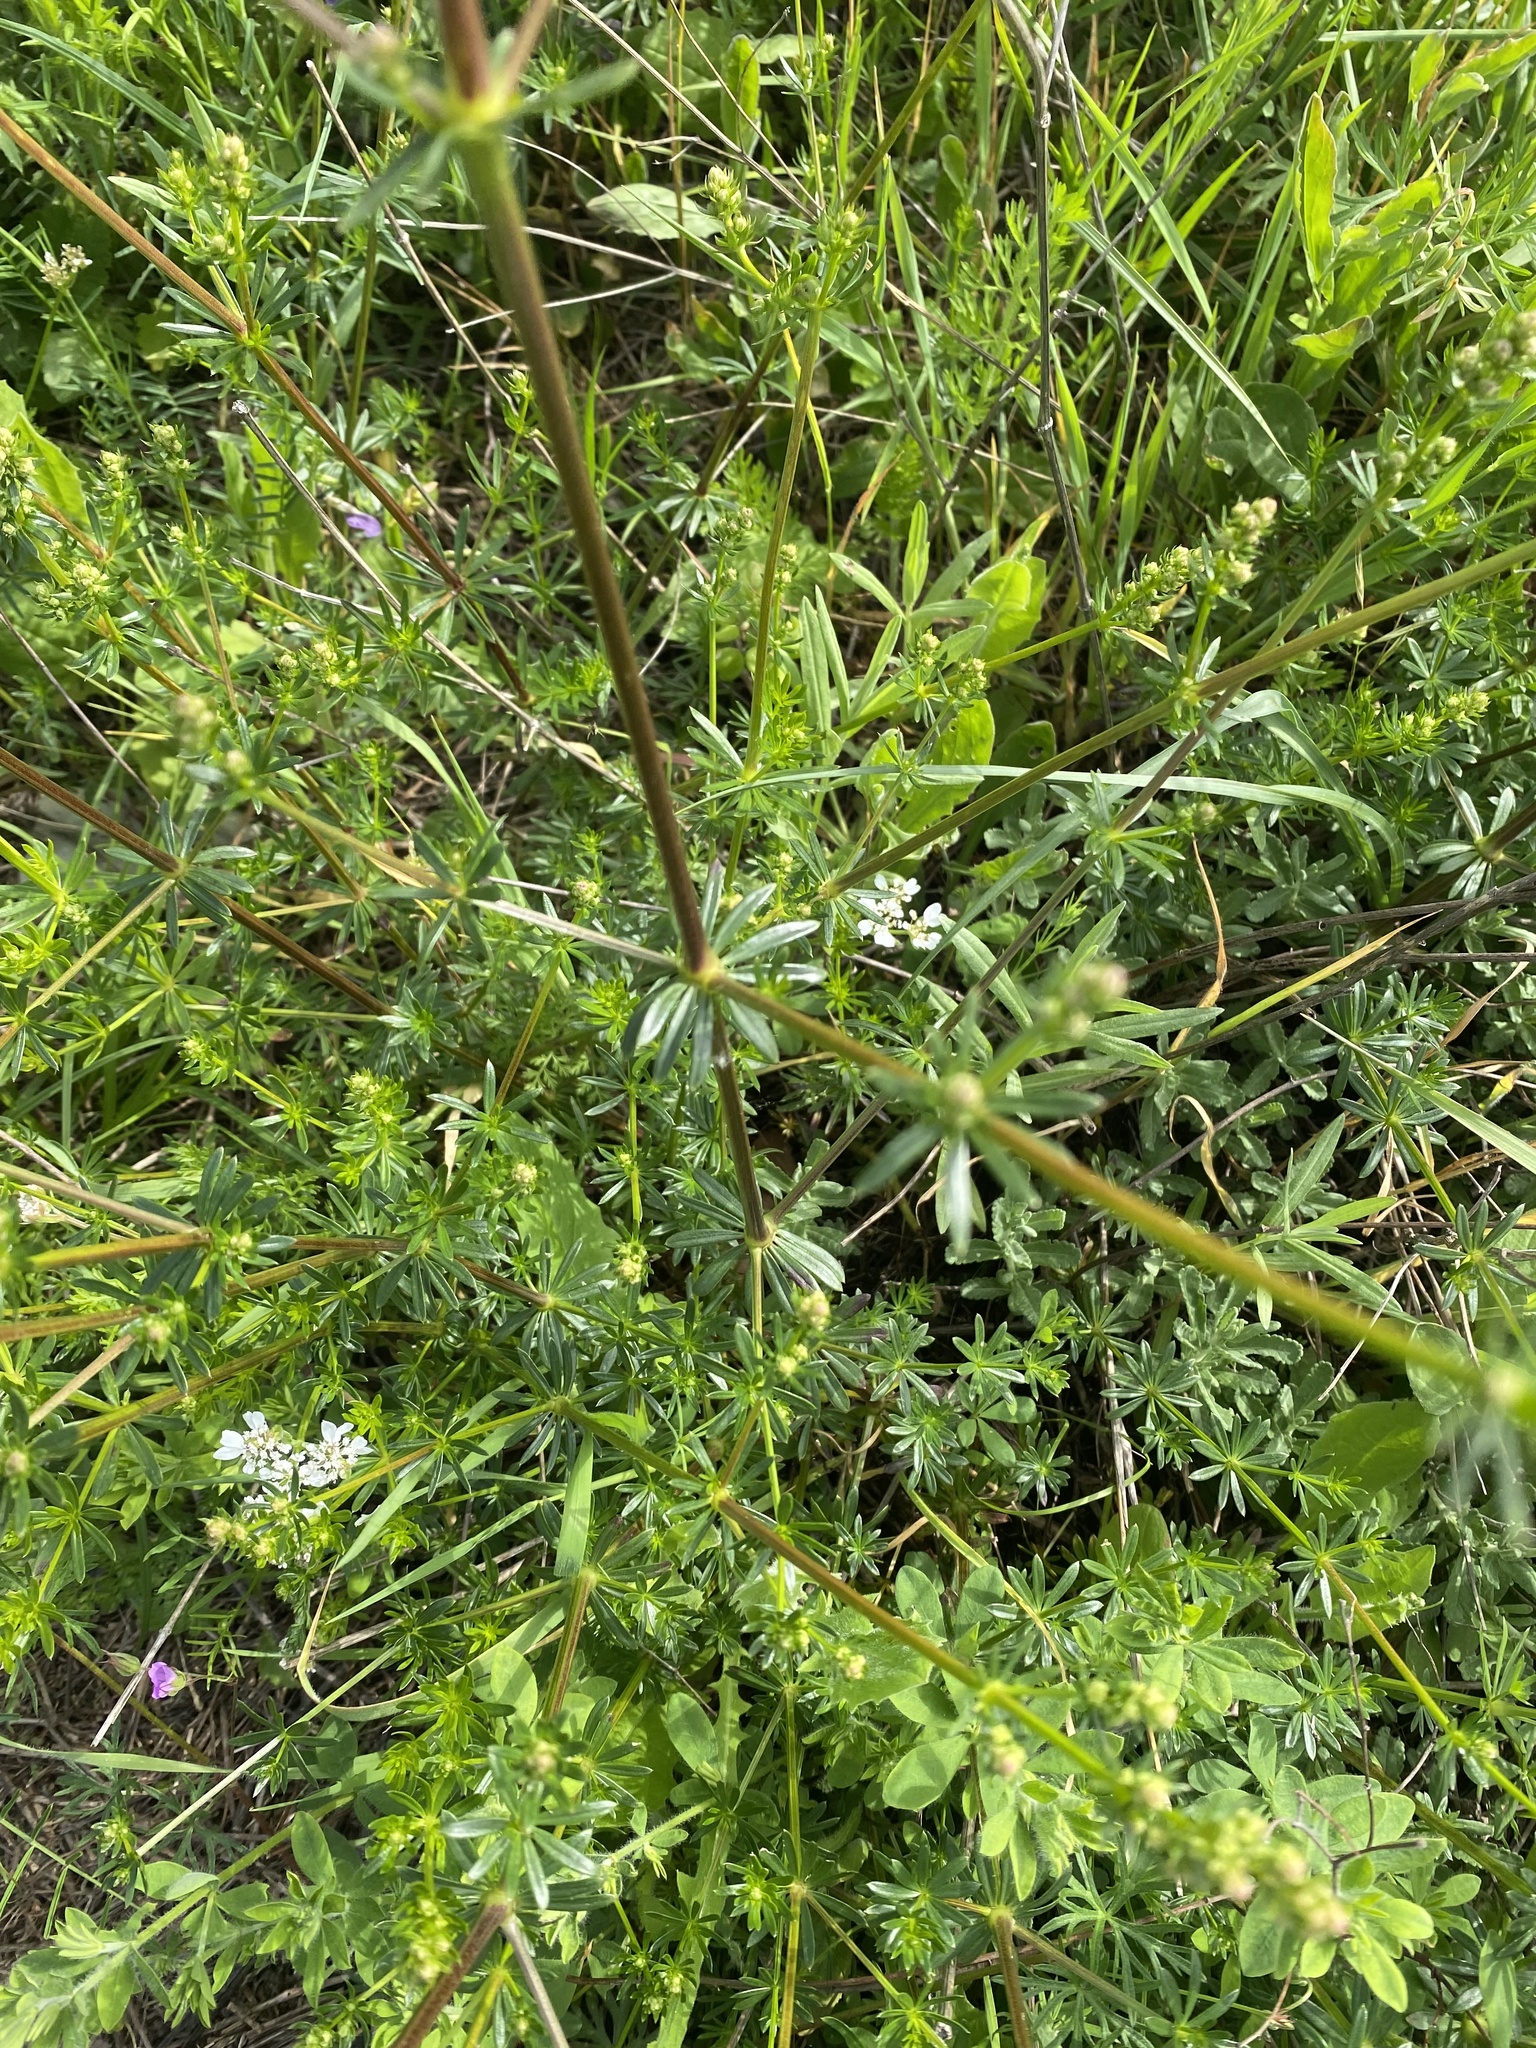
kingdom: Plantae
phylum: Tracheophyta
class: Magnoliopsida
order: Gentianales
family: Rubiaceae
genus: Galium
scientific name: Galium mollugo
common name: Hedge bedstraw
